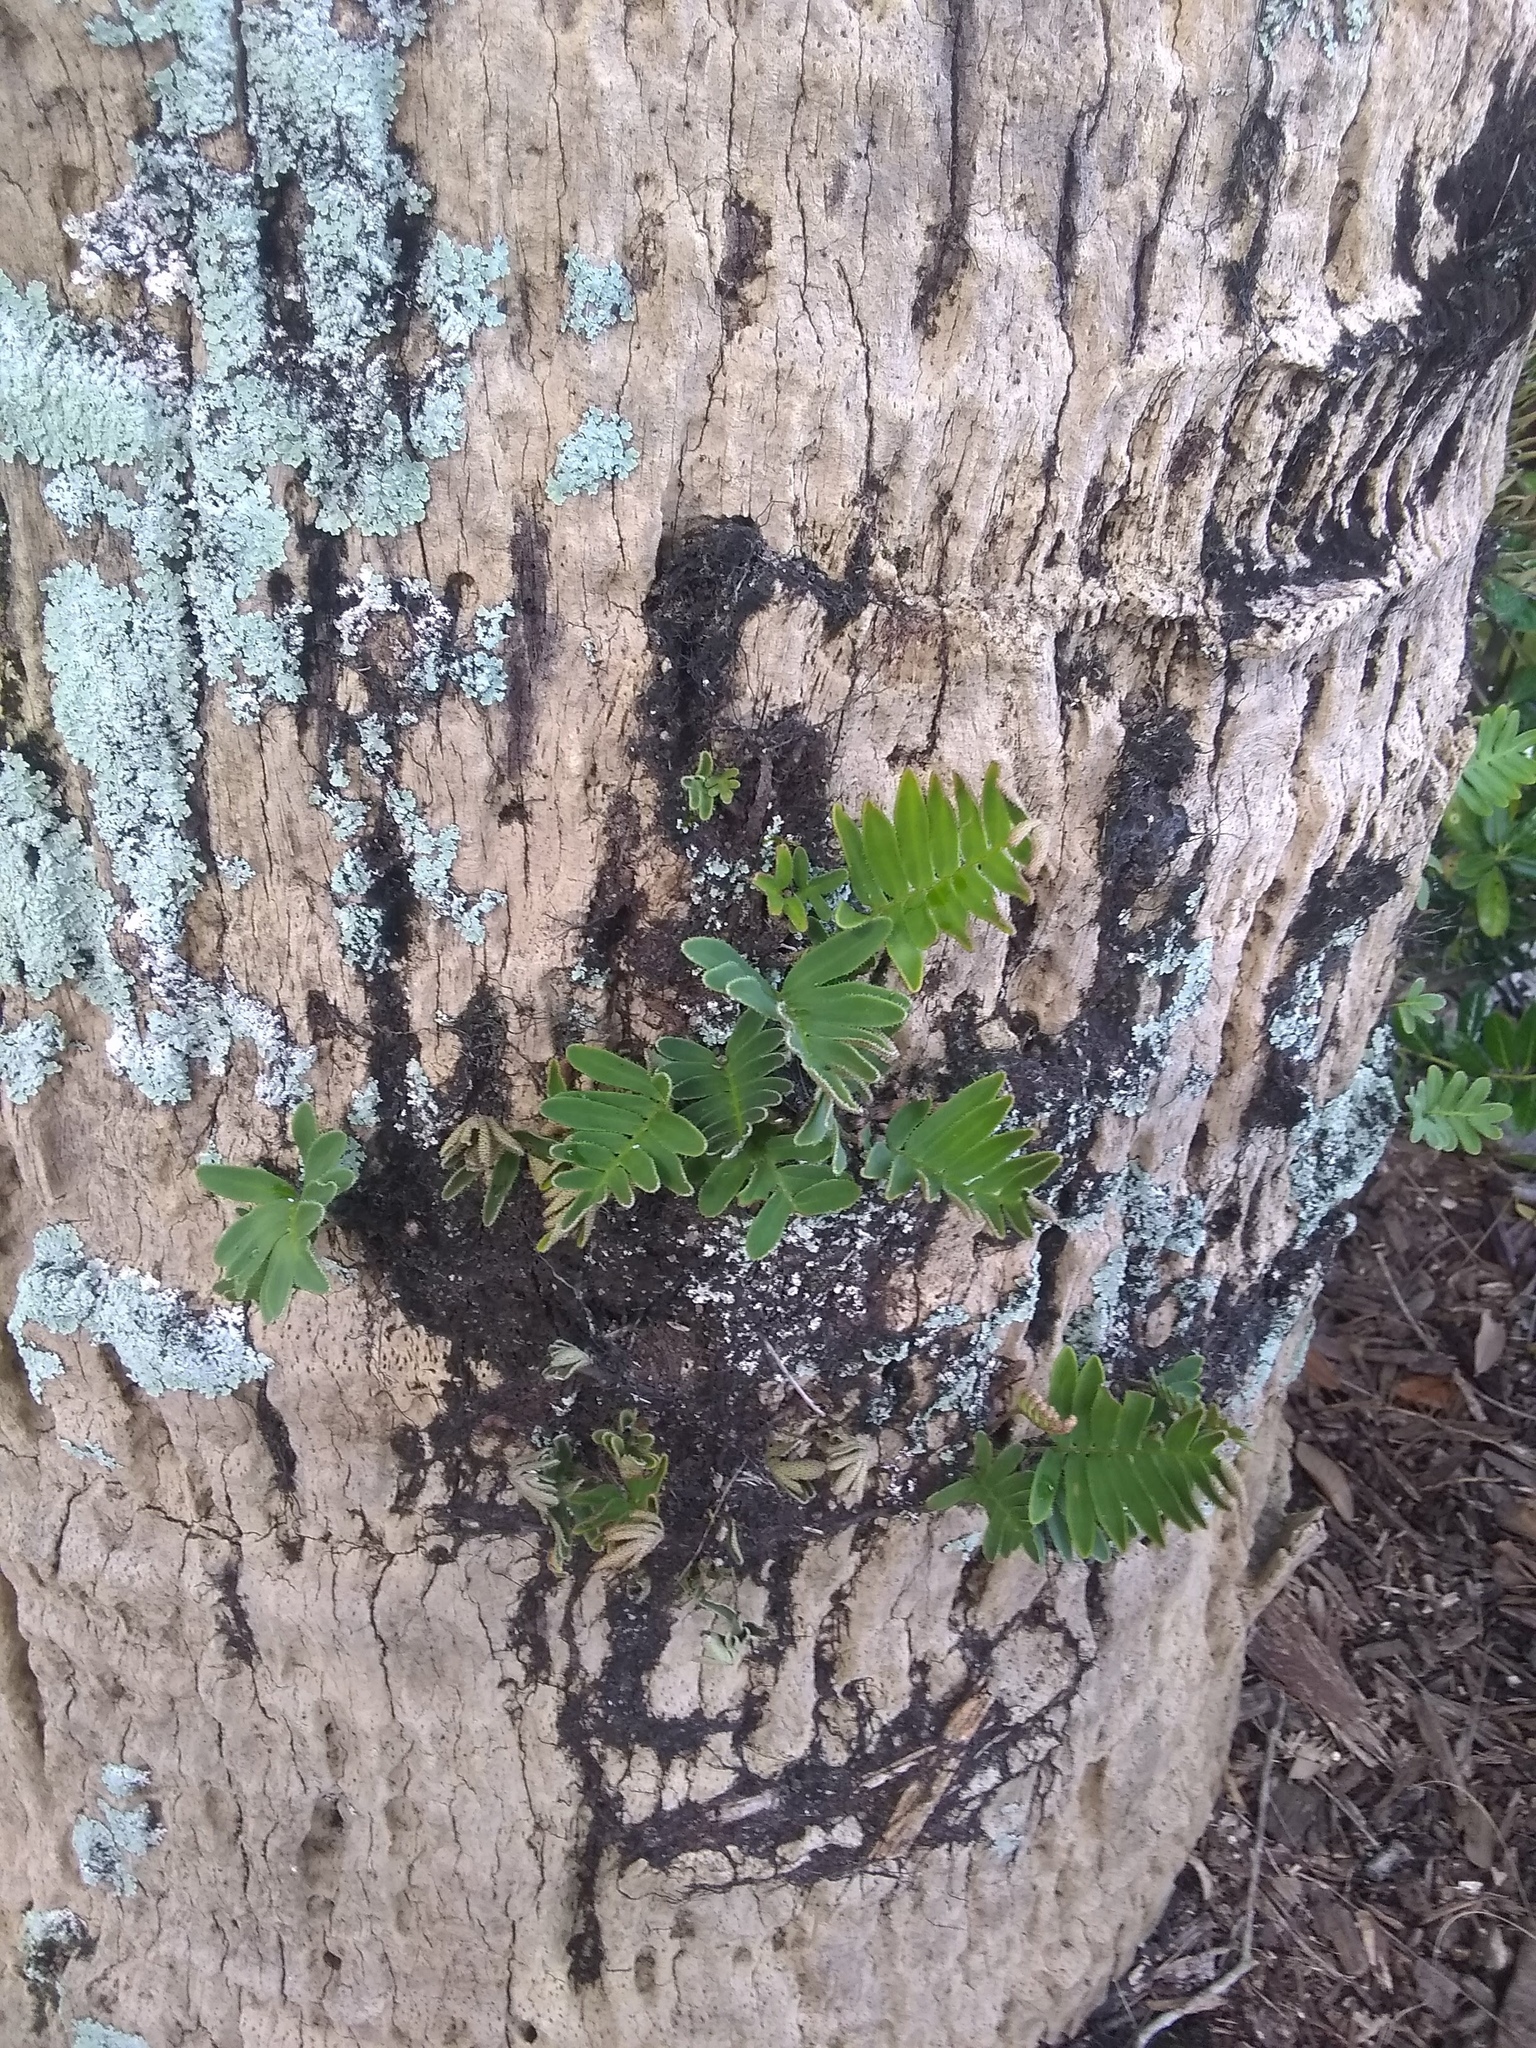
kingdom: Plantae
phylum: Tracheophyta
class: Polypodiopsida
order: Polypodiales
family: Polypodiaceae
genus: Pleopeltis
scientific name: Pleopeltis michauxiana
